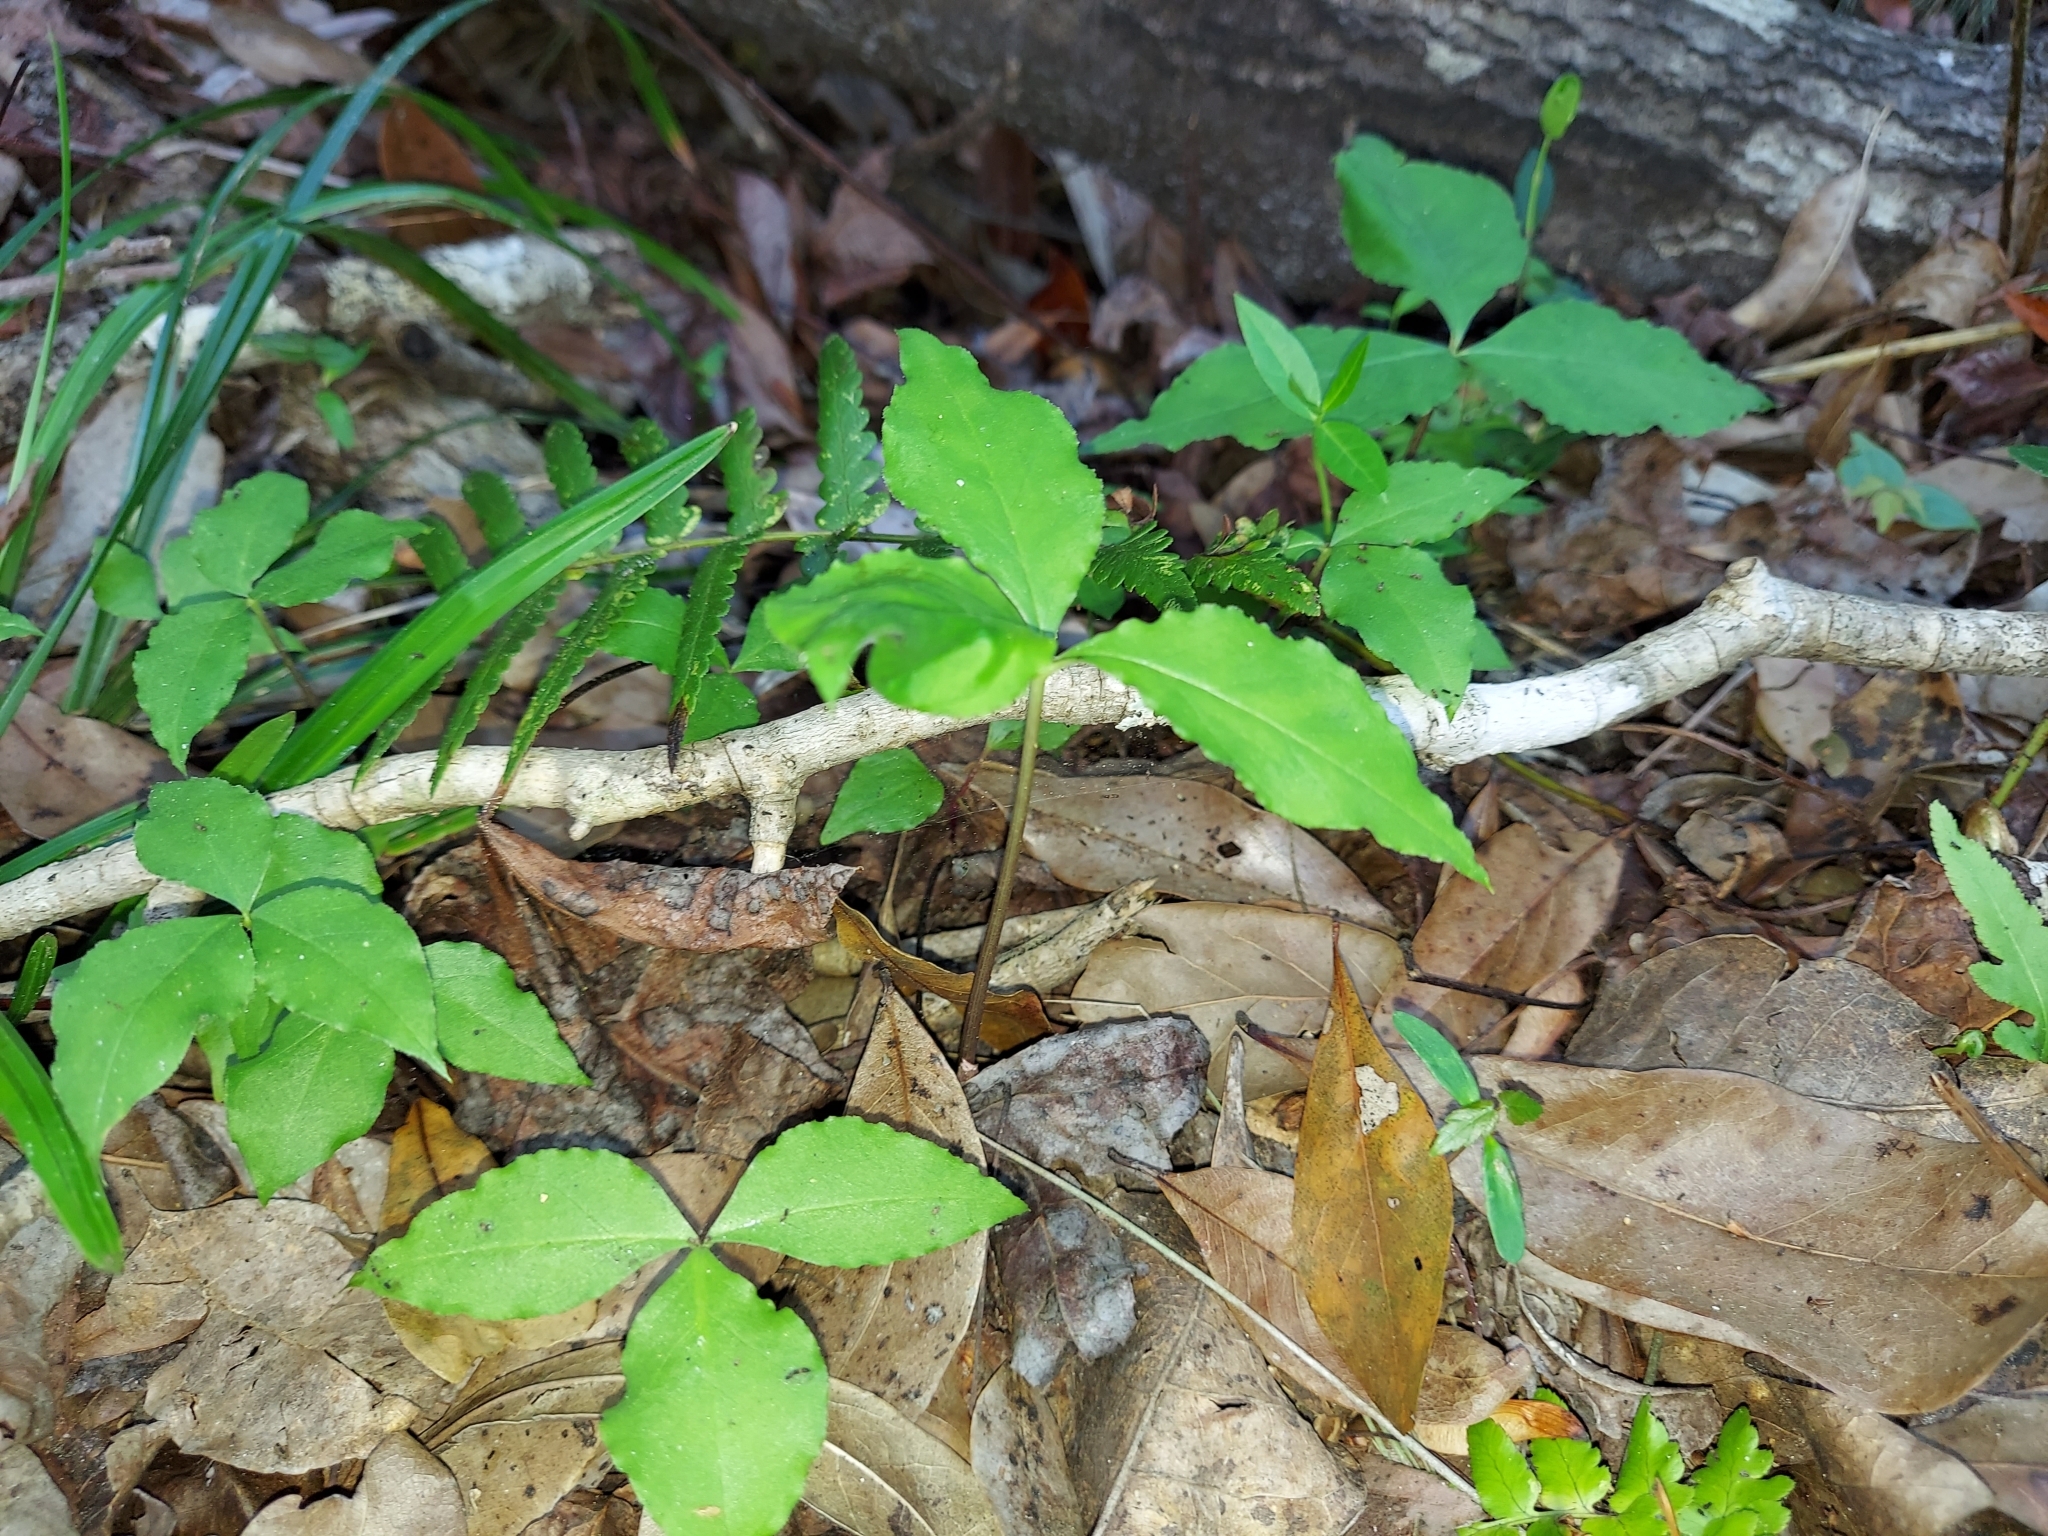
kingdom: Plantae
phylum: Tracheophyta
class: Liliopsida
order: Alismatales
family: Araceae
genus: Arisaema
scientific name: Arisaema acuminatum
